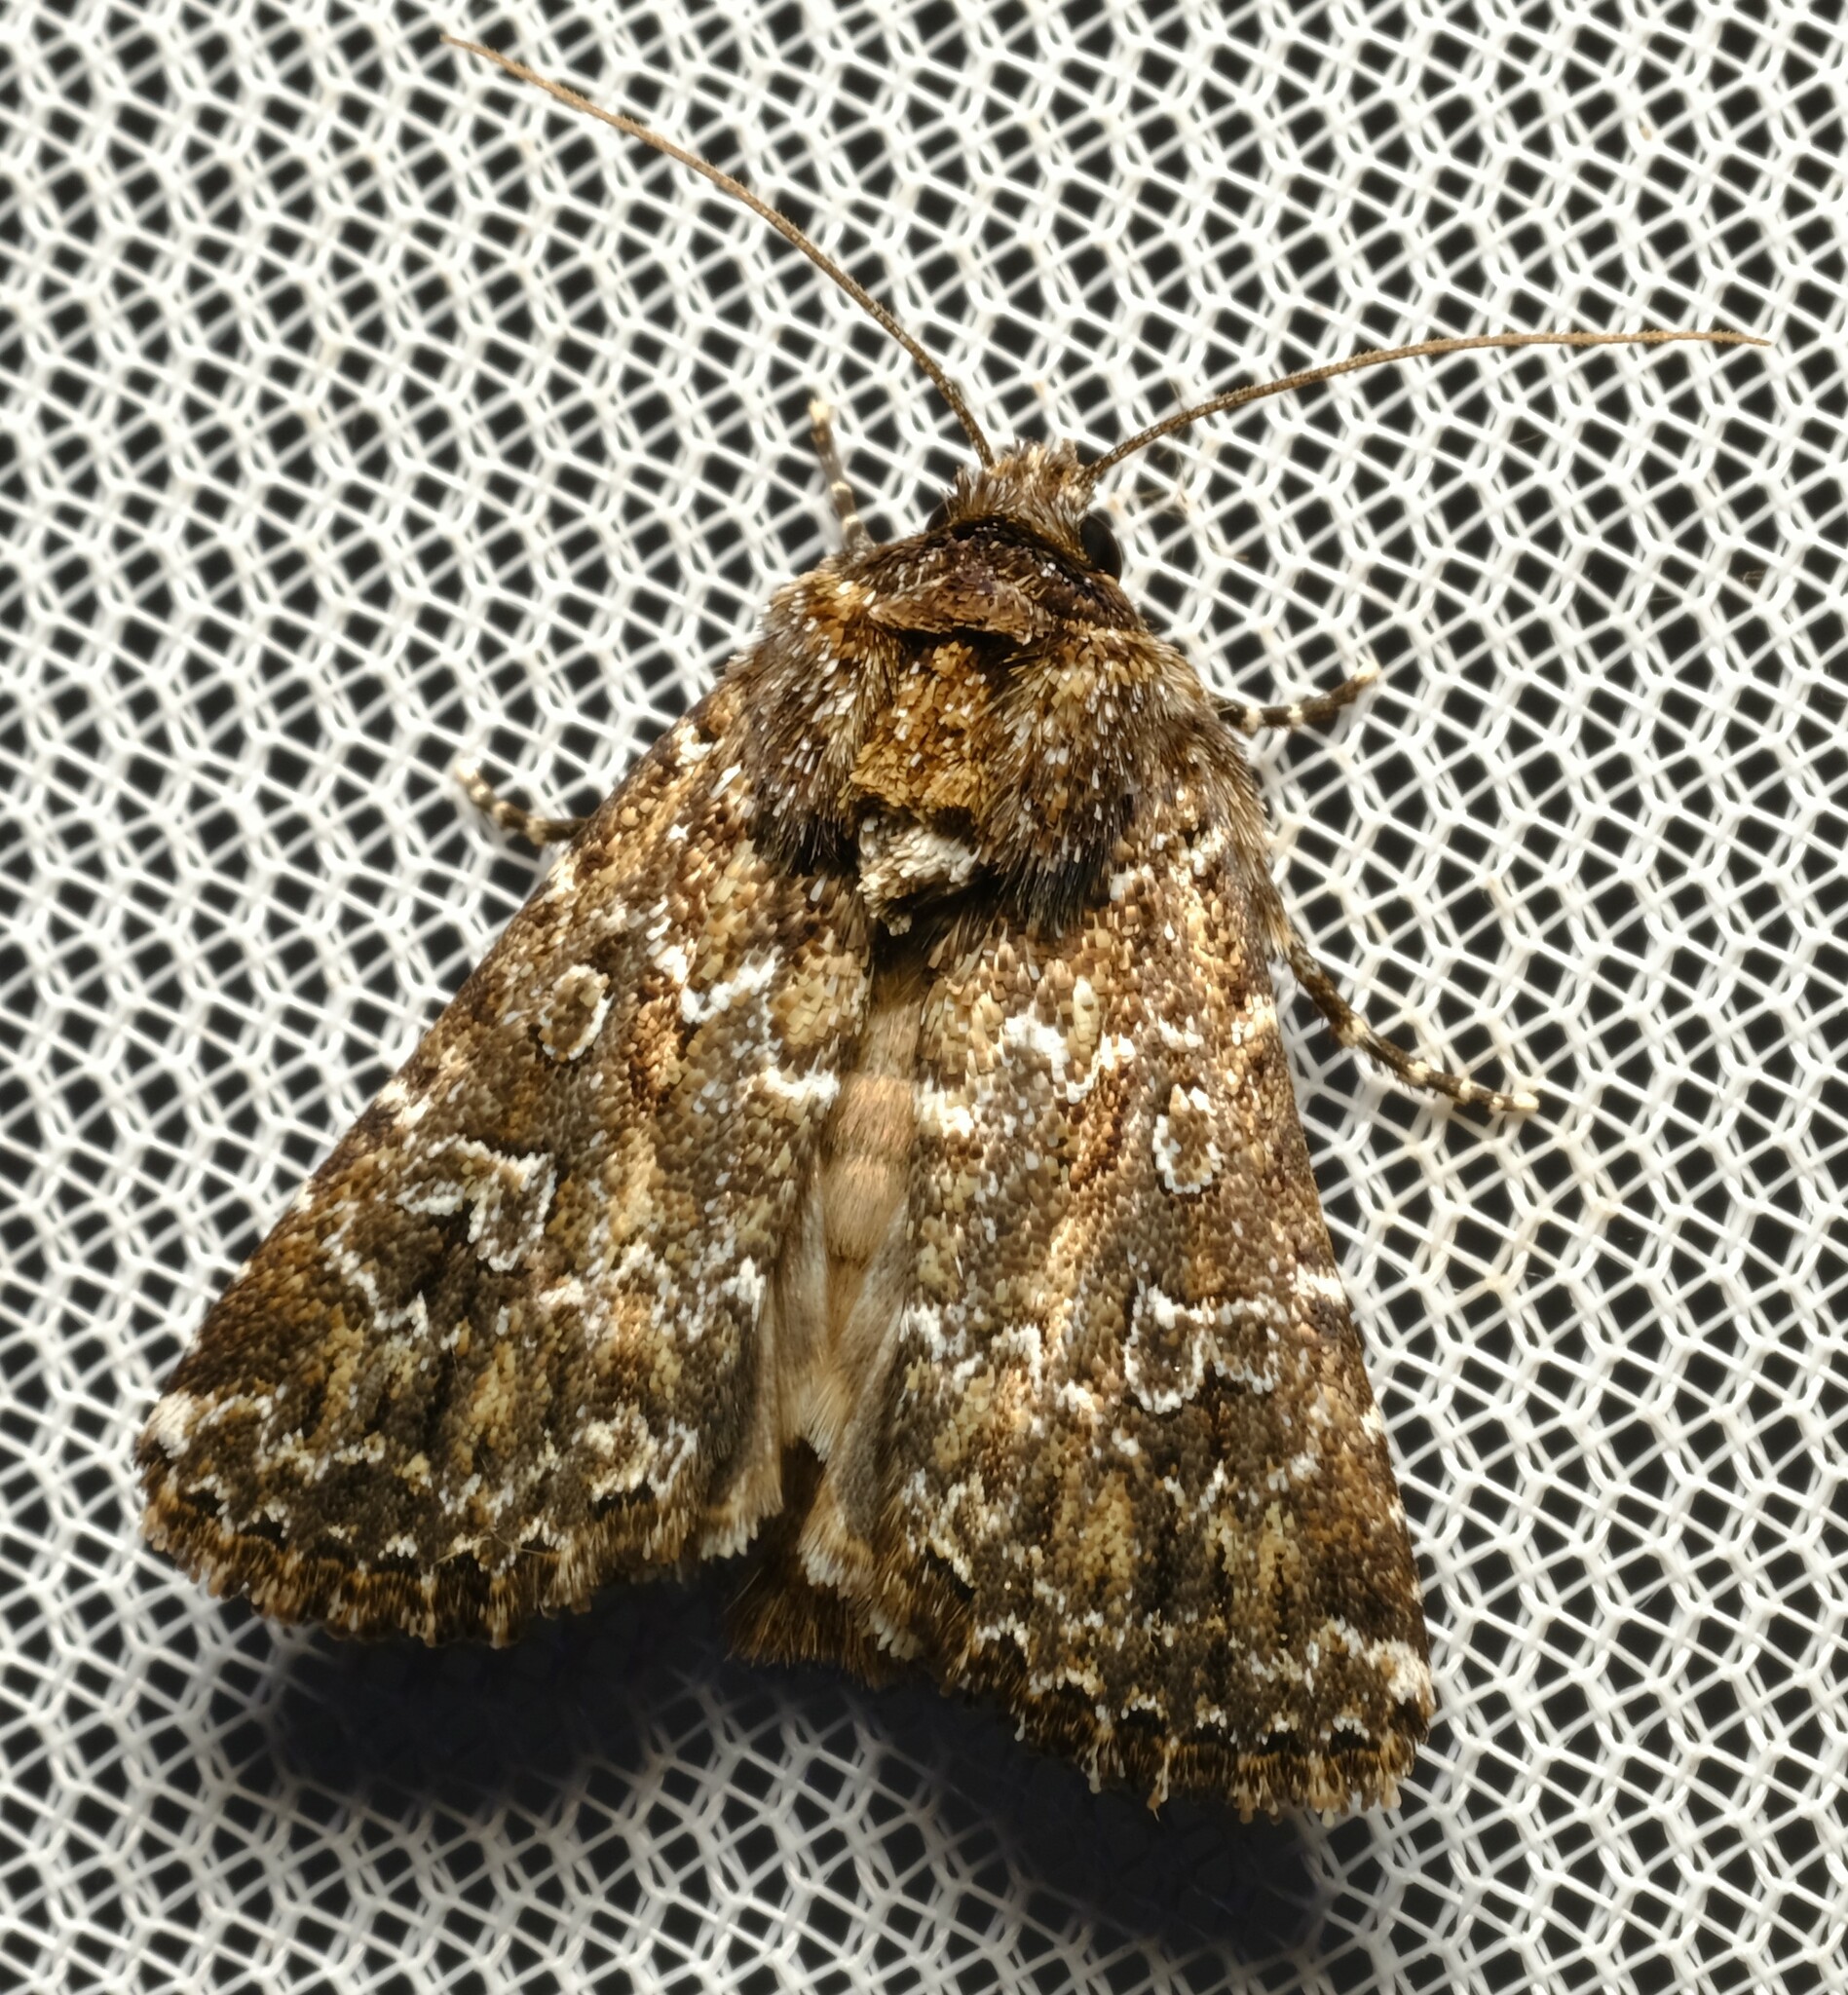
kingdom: Animalia
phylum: Arthropoda
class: Insecta
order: Lepidoptera
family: Noctuidae
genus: Ectopatria
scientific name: Ectopatria subrufescens
